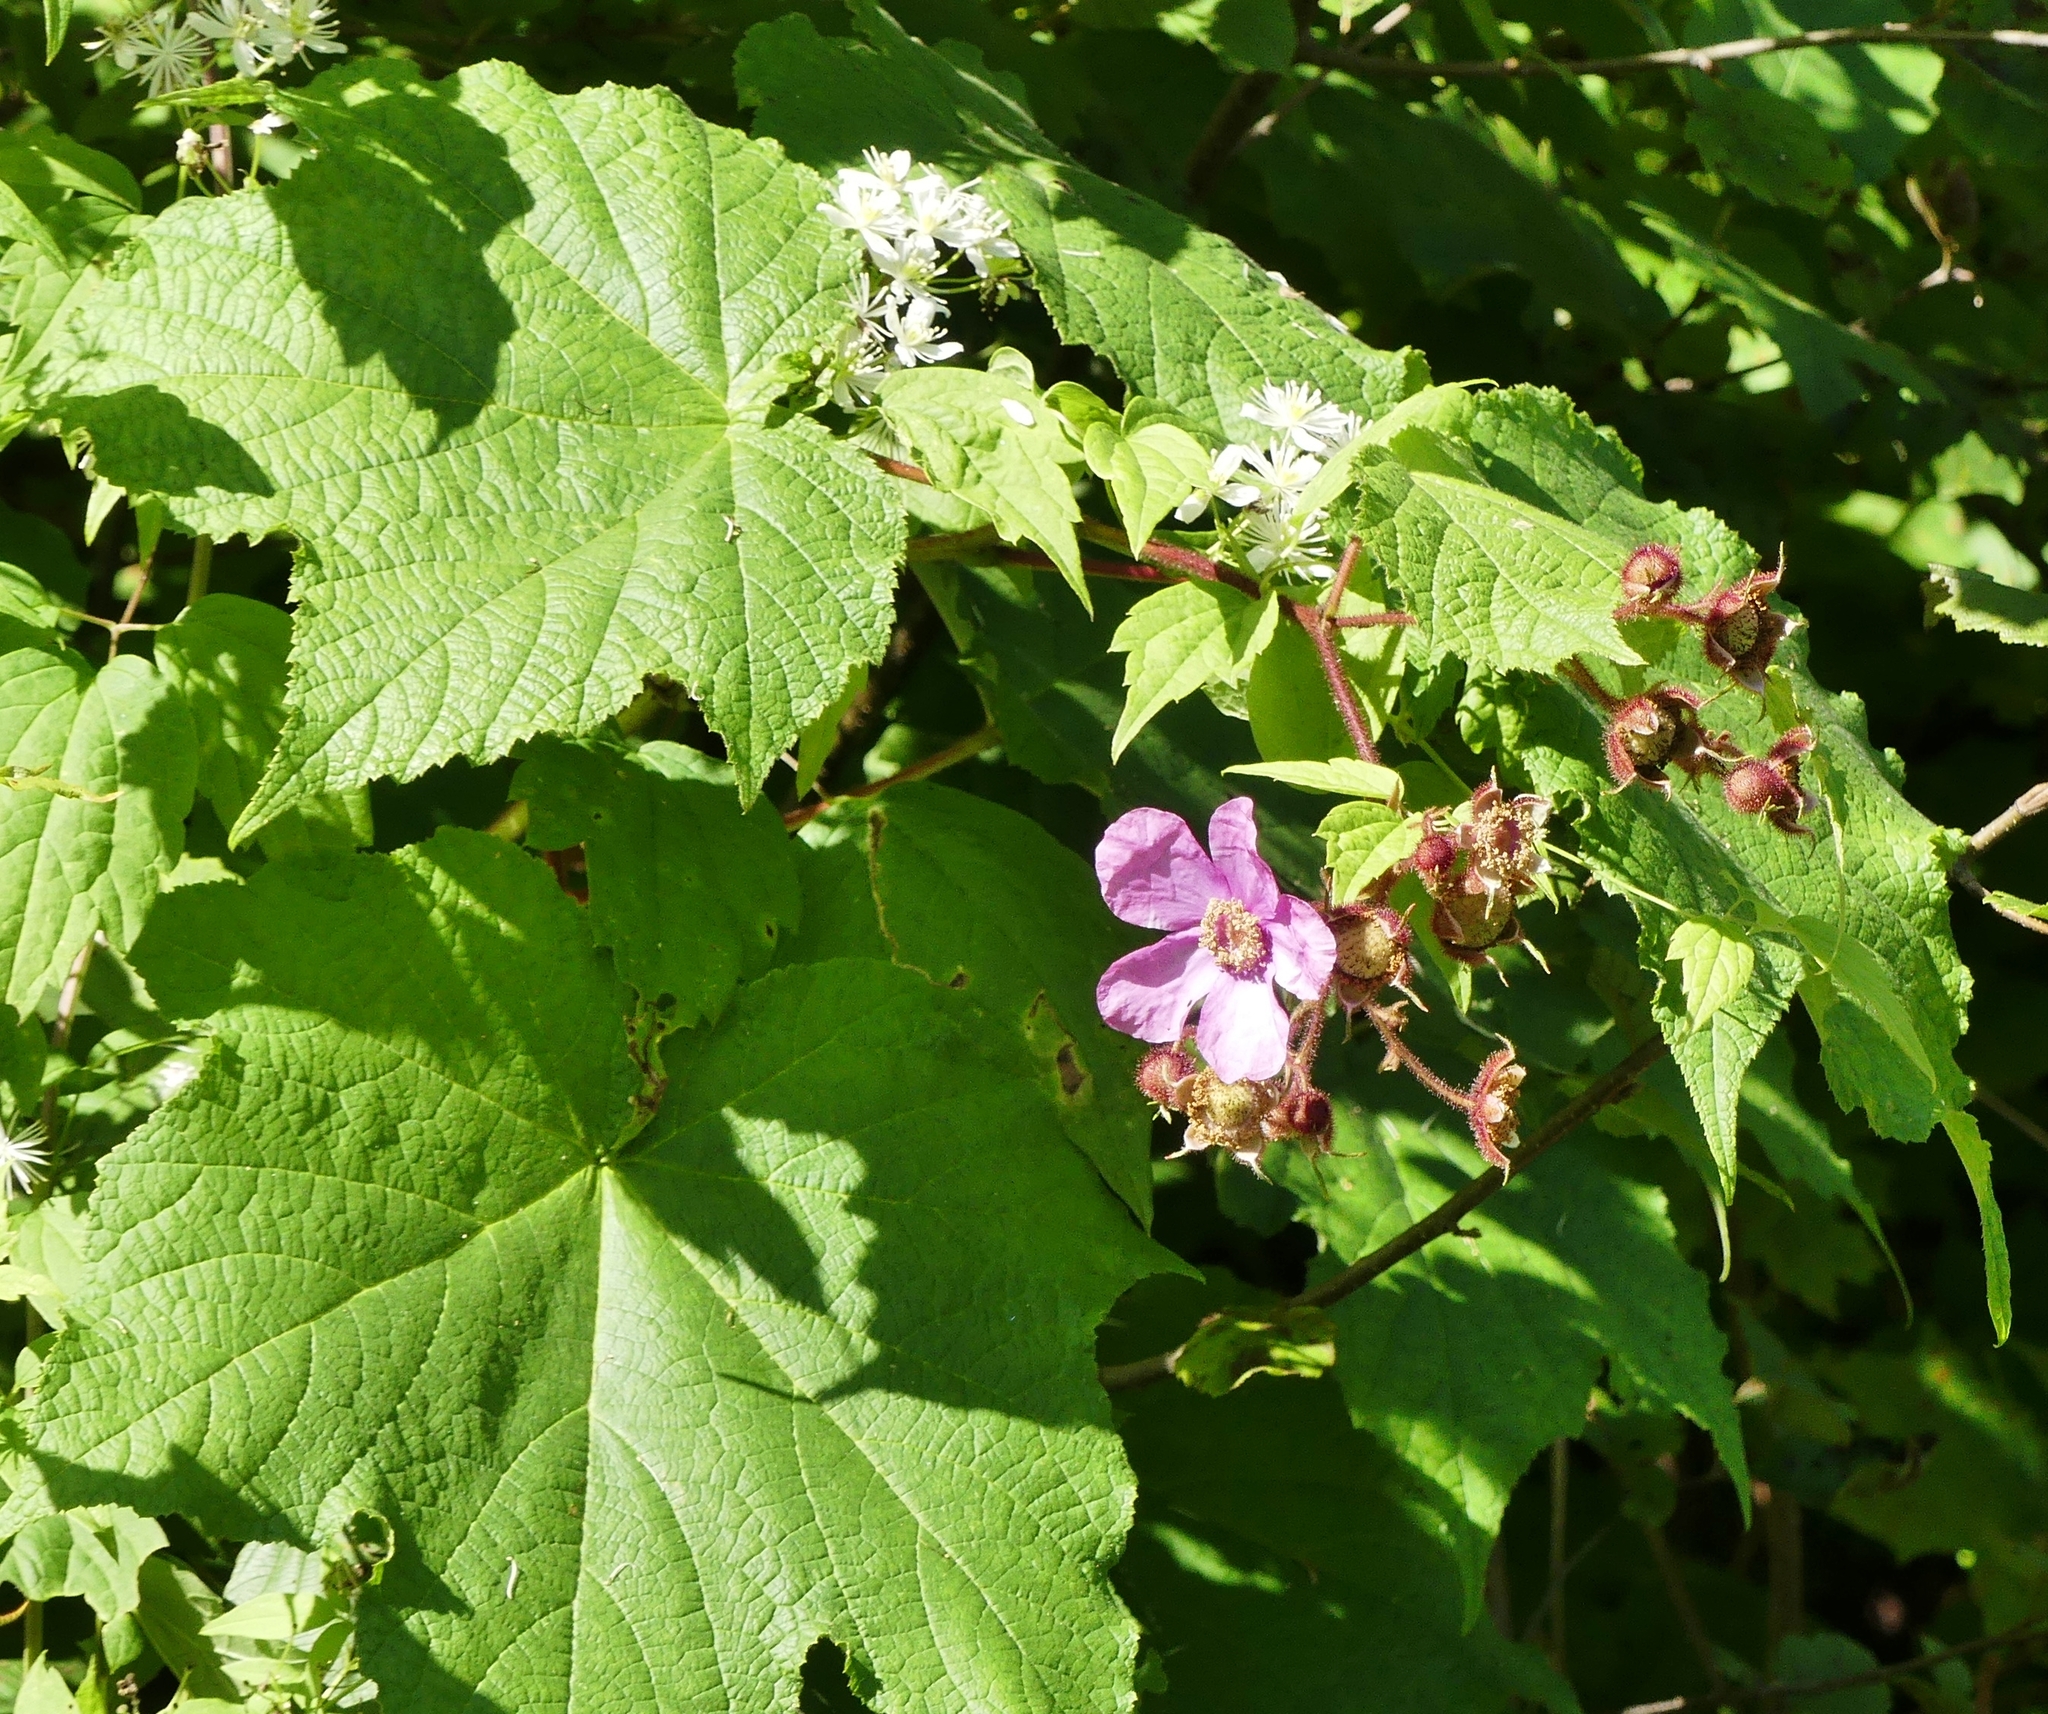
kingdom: Plantae
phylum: Tracheophyta
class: Magnoliopsida
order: Rosales
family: Rosaceae
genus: Rubus
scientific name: Rubus odoratus
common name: Purple-flowered raspberry
